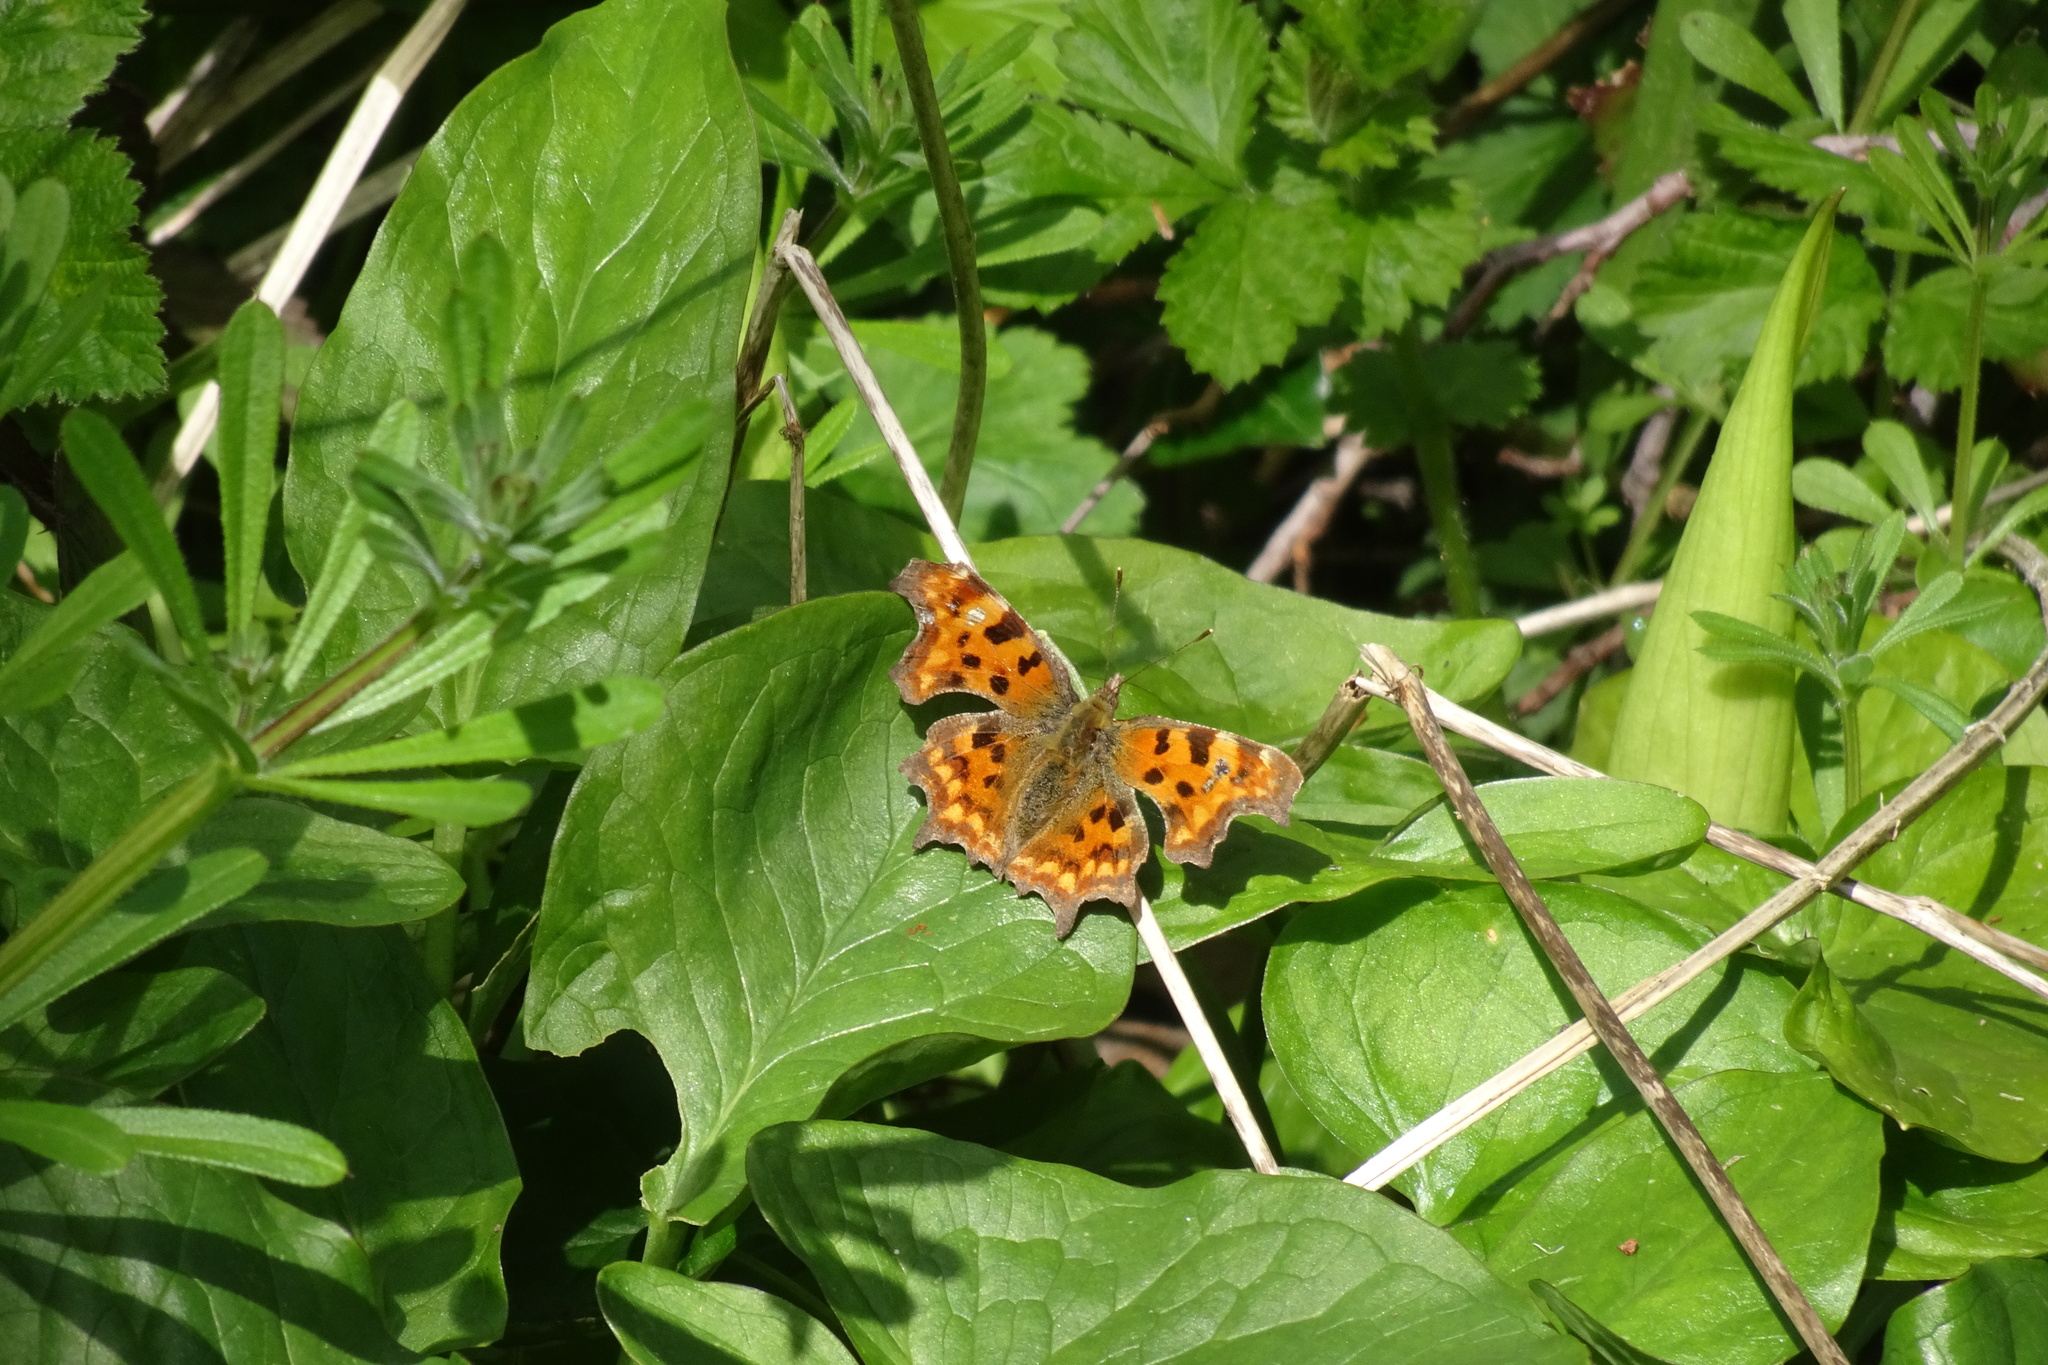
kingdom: Animalia
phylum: Arthropoda
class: Insecta
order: Lepidoptera
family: Nymphalidae
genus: Polygonia
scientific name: Polygonia c-album
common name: Comma
